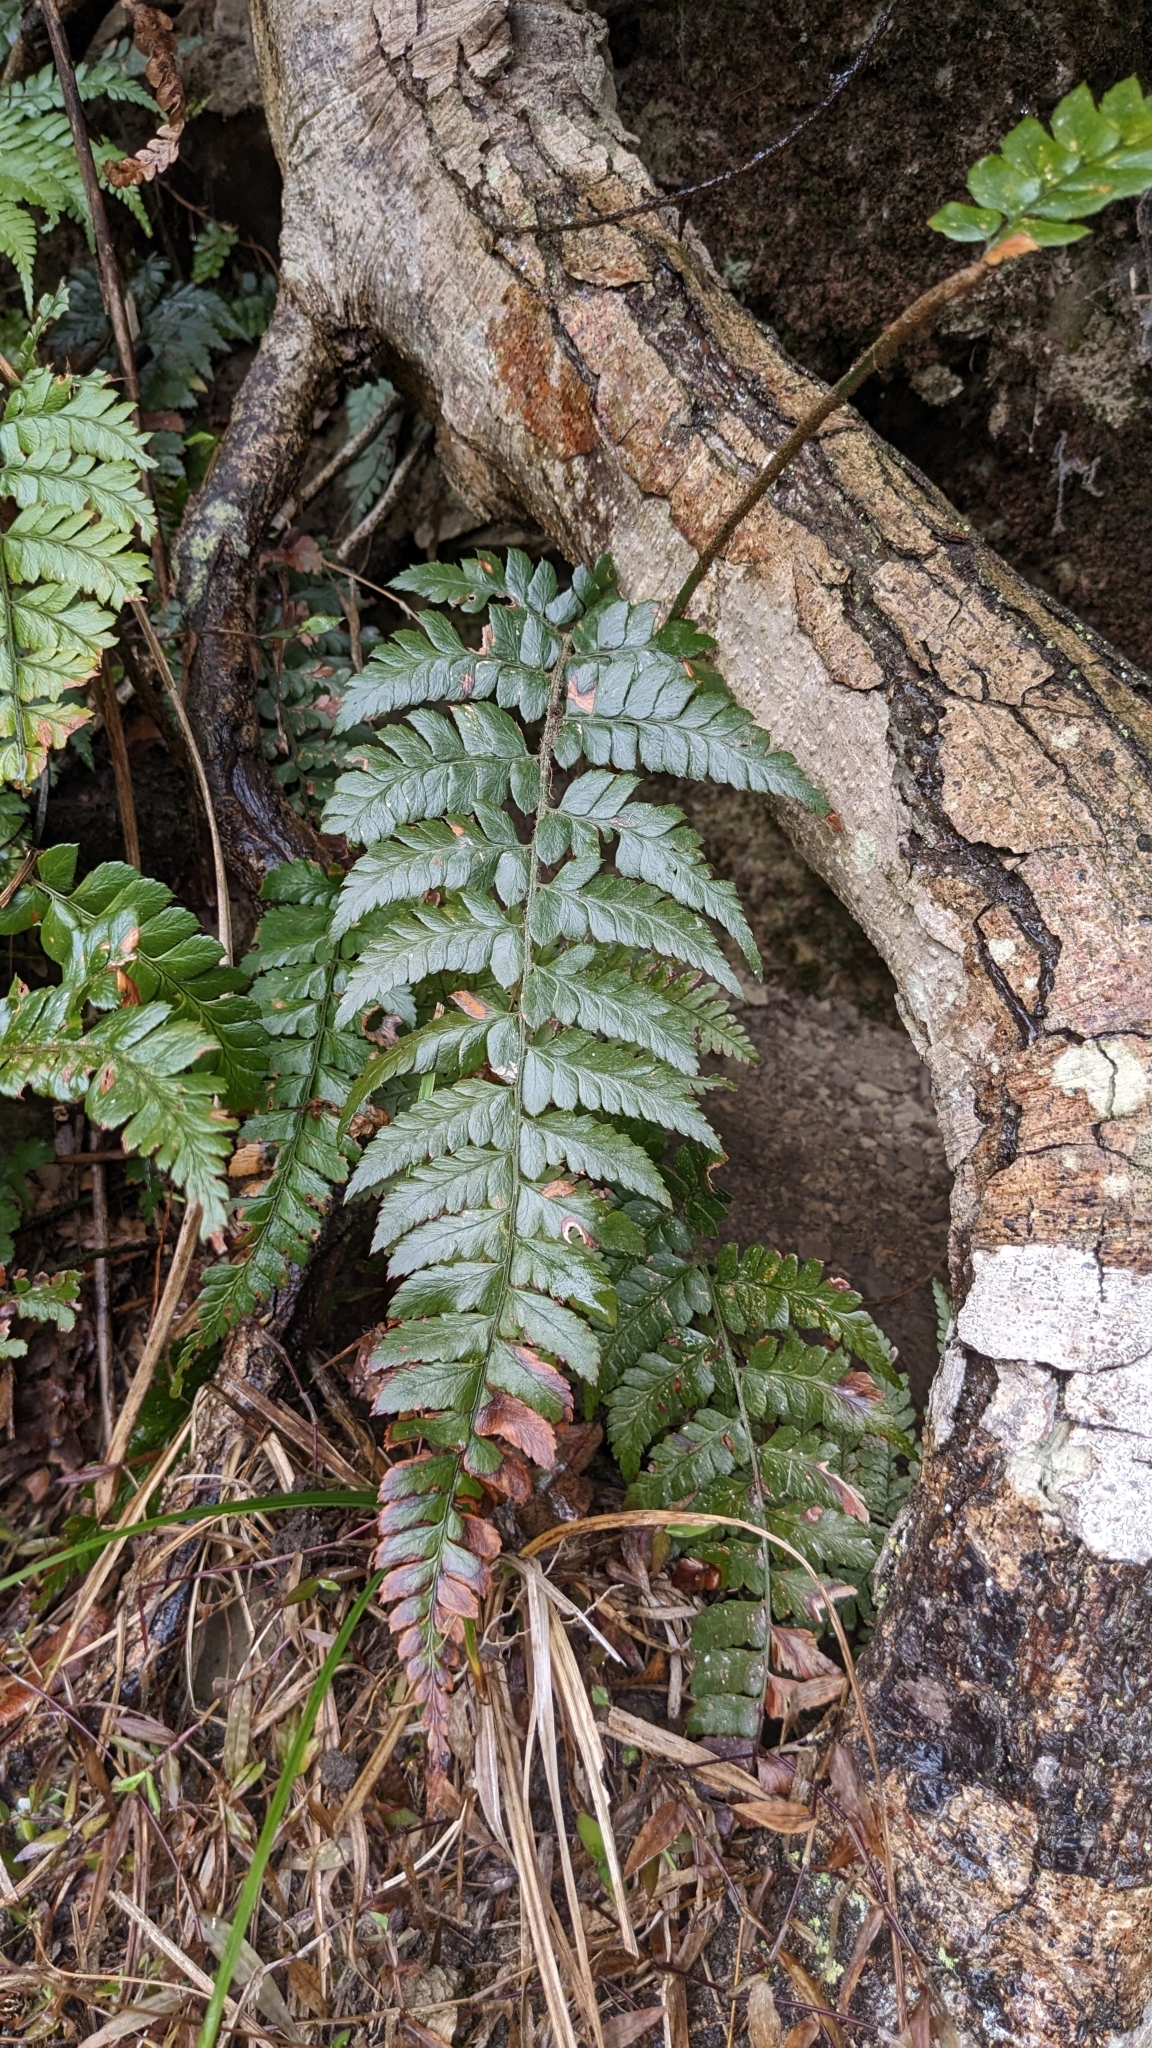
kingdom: Plantae
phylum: Tracheophyta
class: Polypodiopsida
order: Polypodiales
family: Dryopteridaceae
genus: Polystichum
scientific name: Polystichum biaristatum
